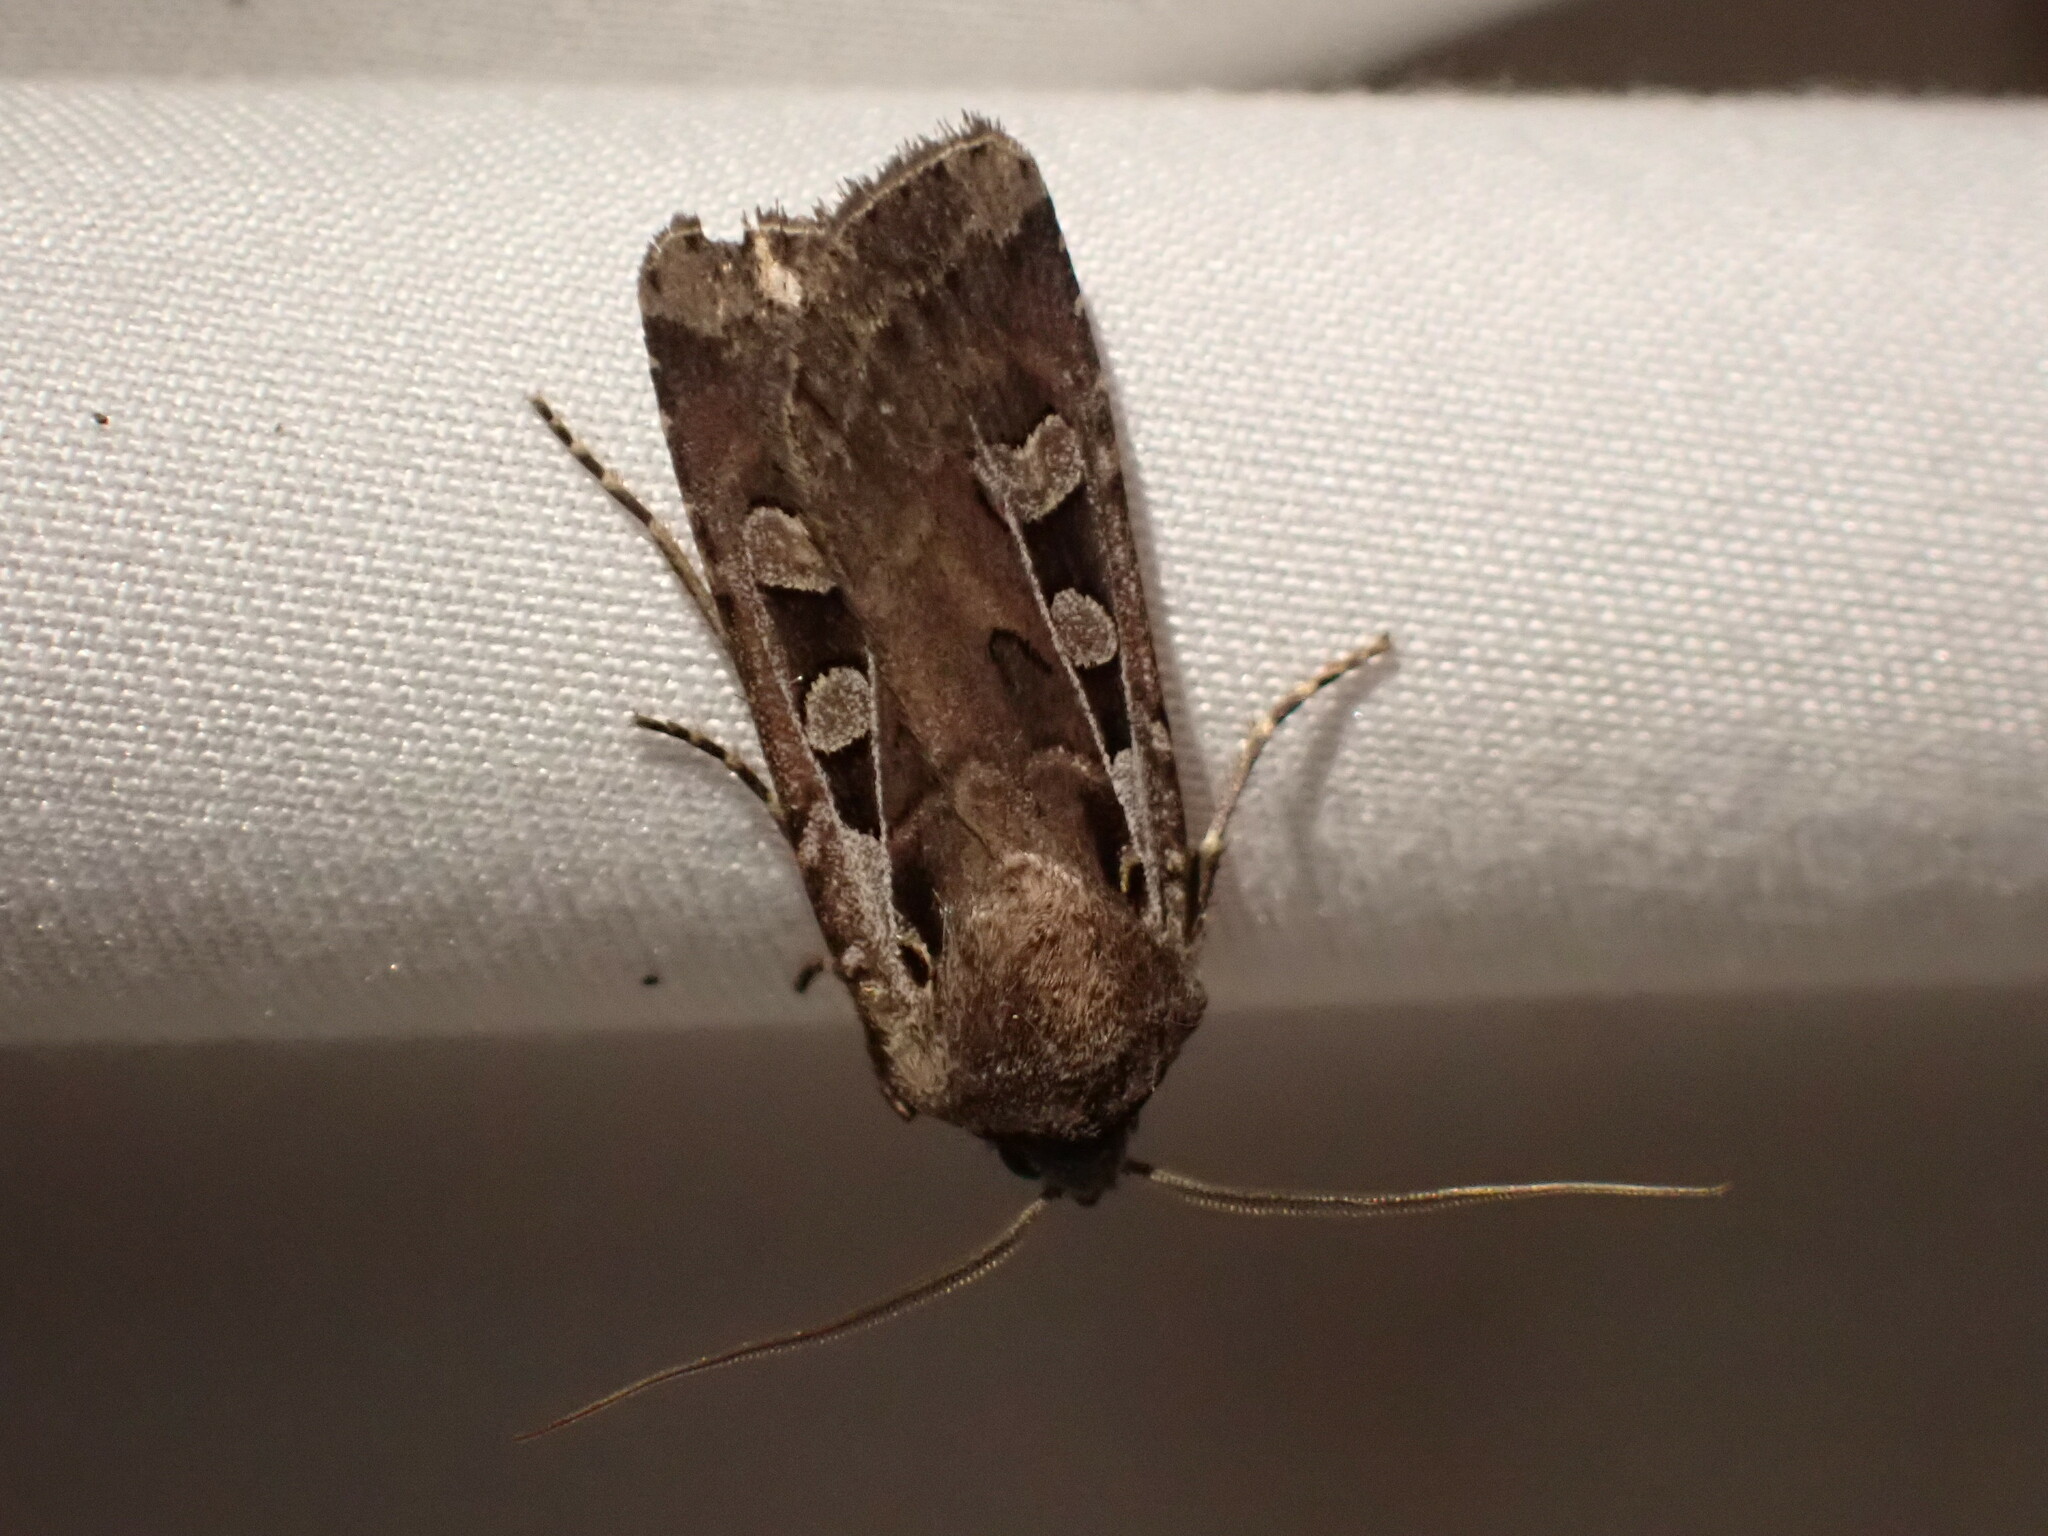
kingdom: Animalia
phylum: Arthropoda
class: Insecta
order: Lepidoptera
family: Noctuidae
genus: Euxoa
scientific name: Euxoa divergens
